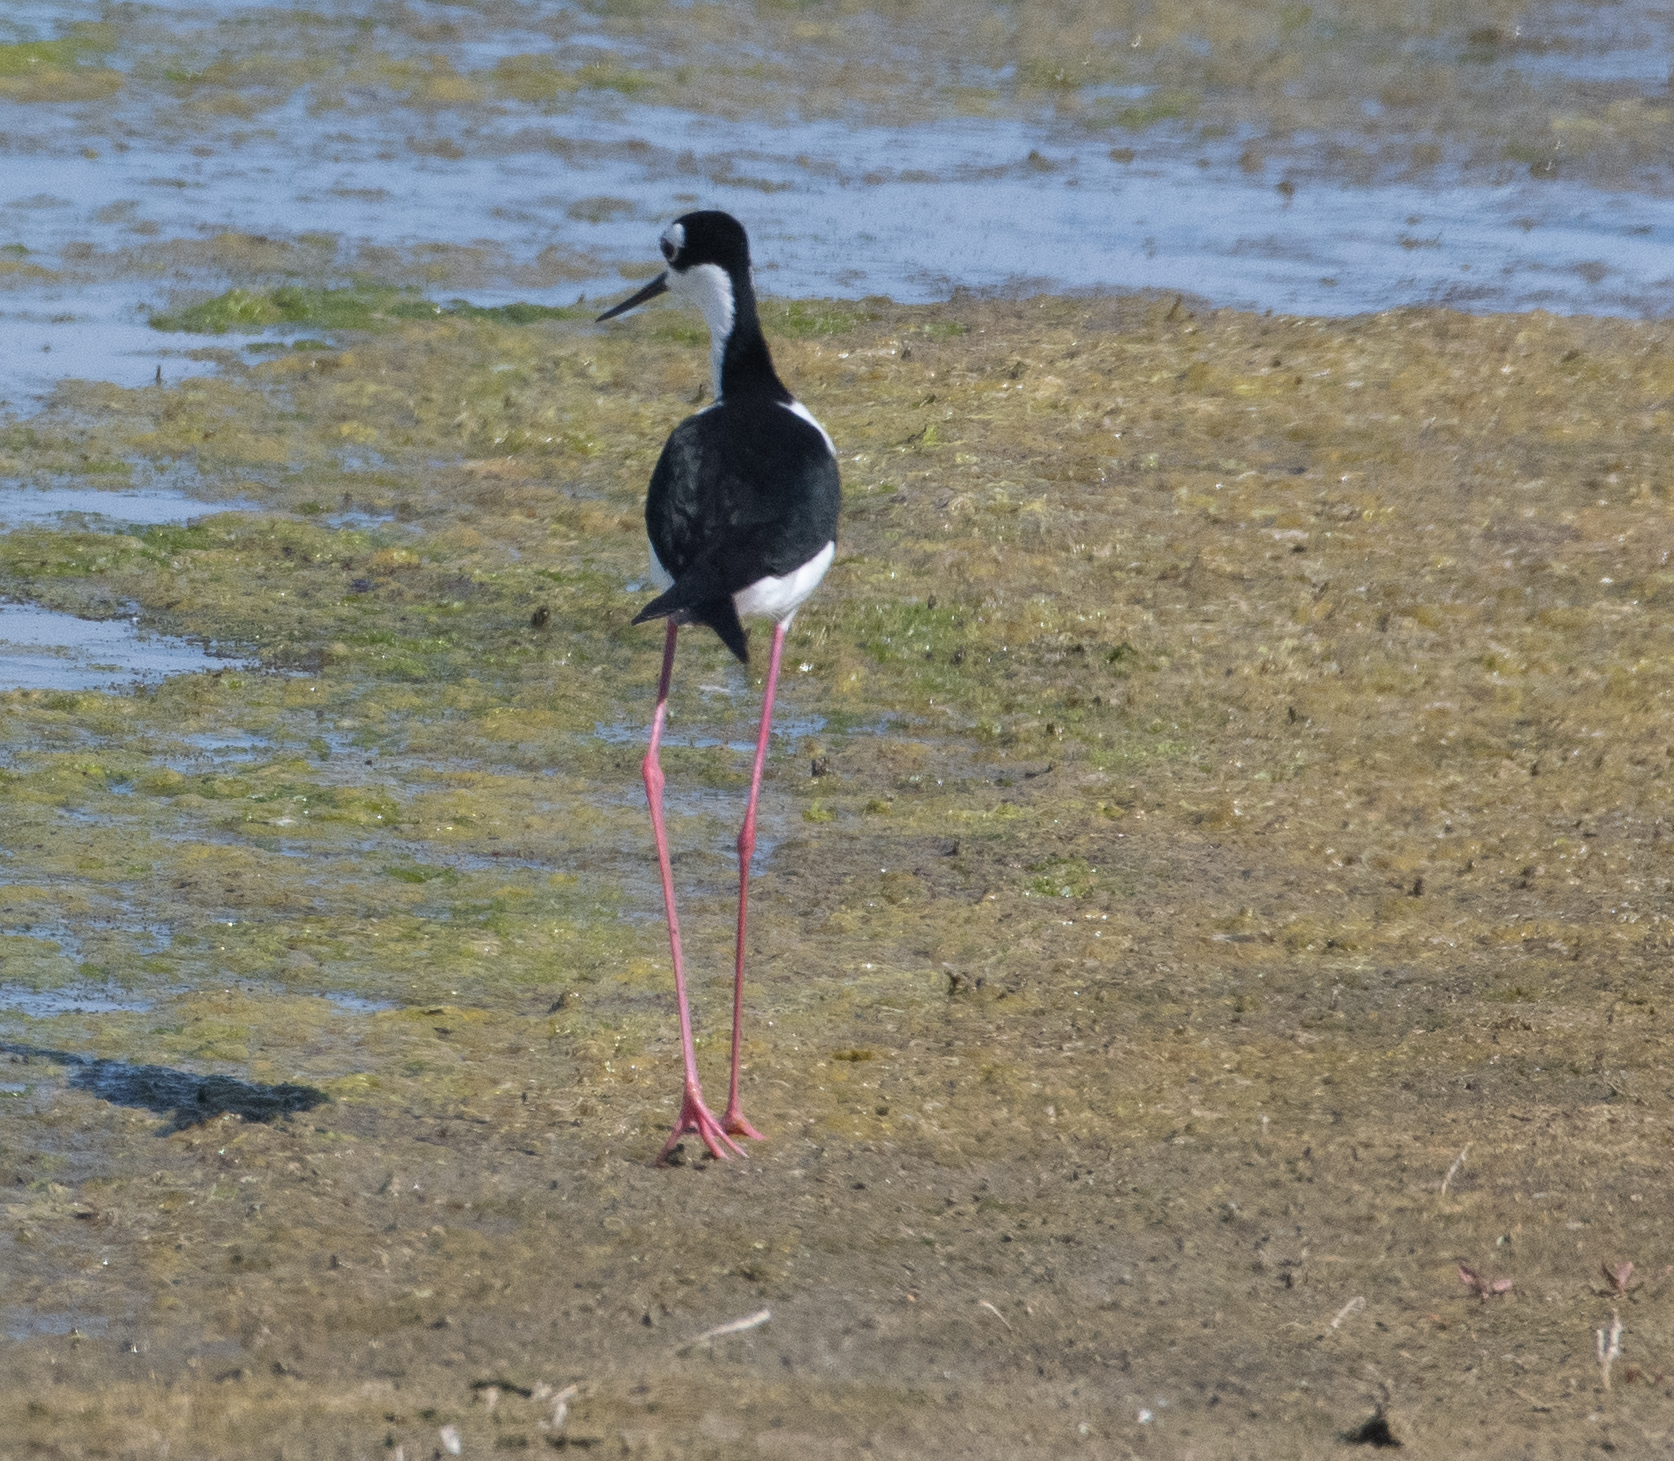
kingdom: Animalia
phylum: Chordata
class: Aves
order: Charadriiformes
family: Recurvirostridae
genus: Himantopus
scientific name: Himantopus mexicanus
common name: Black-necked stilt
